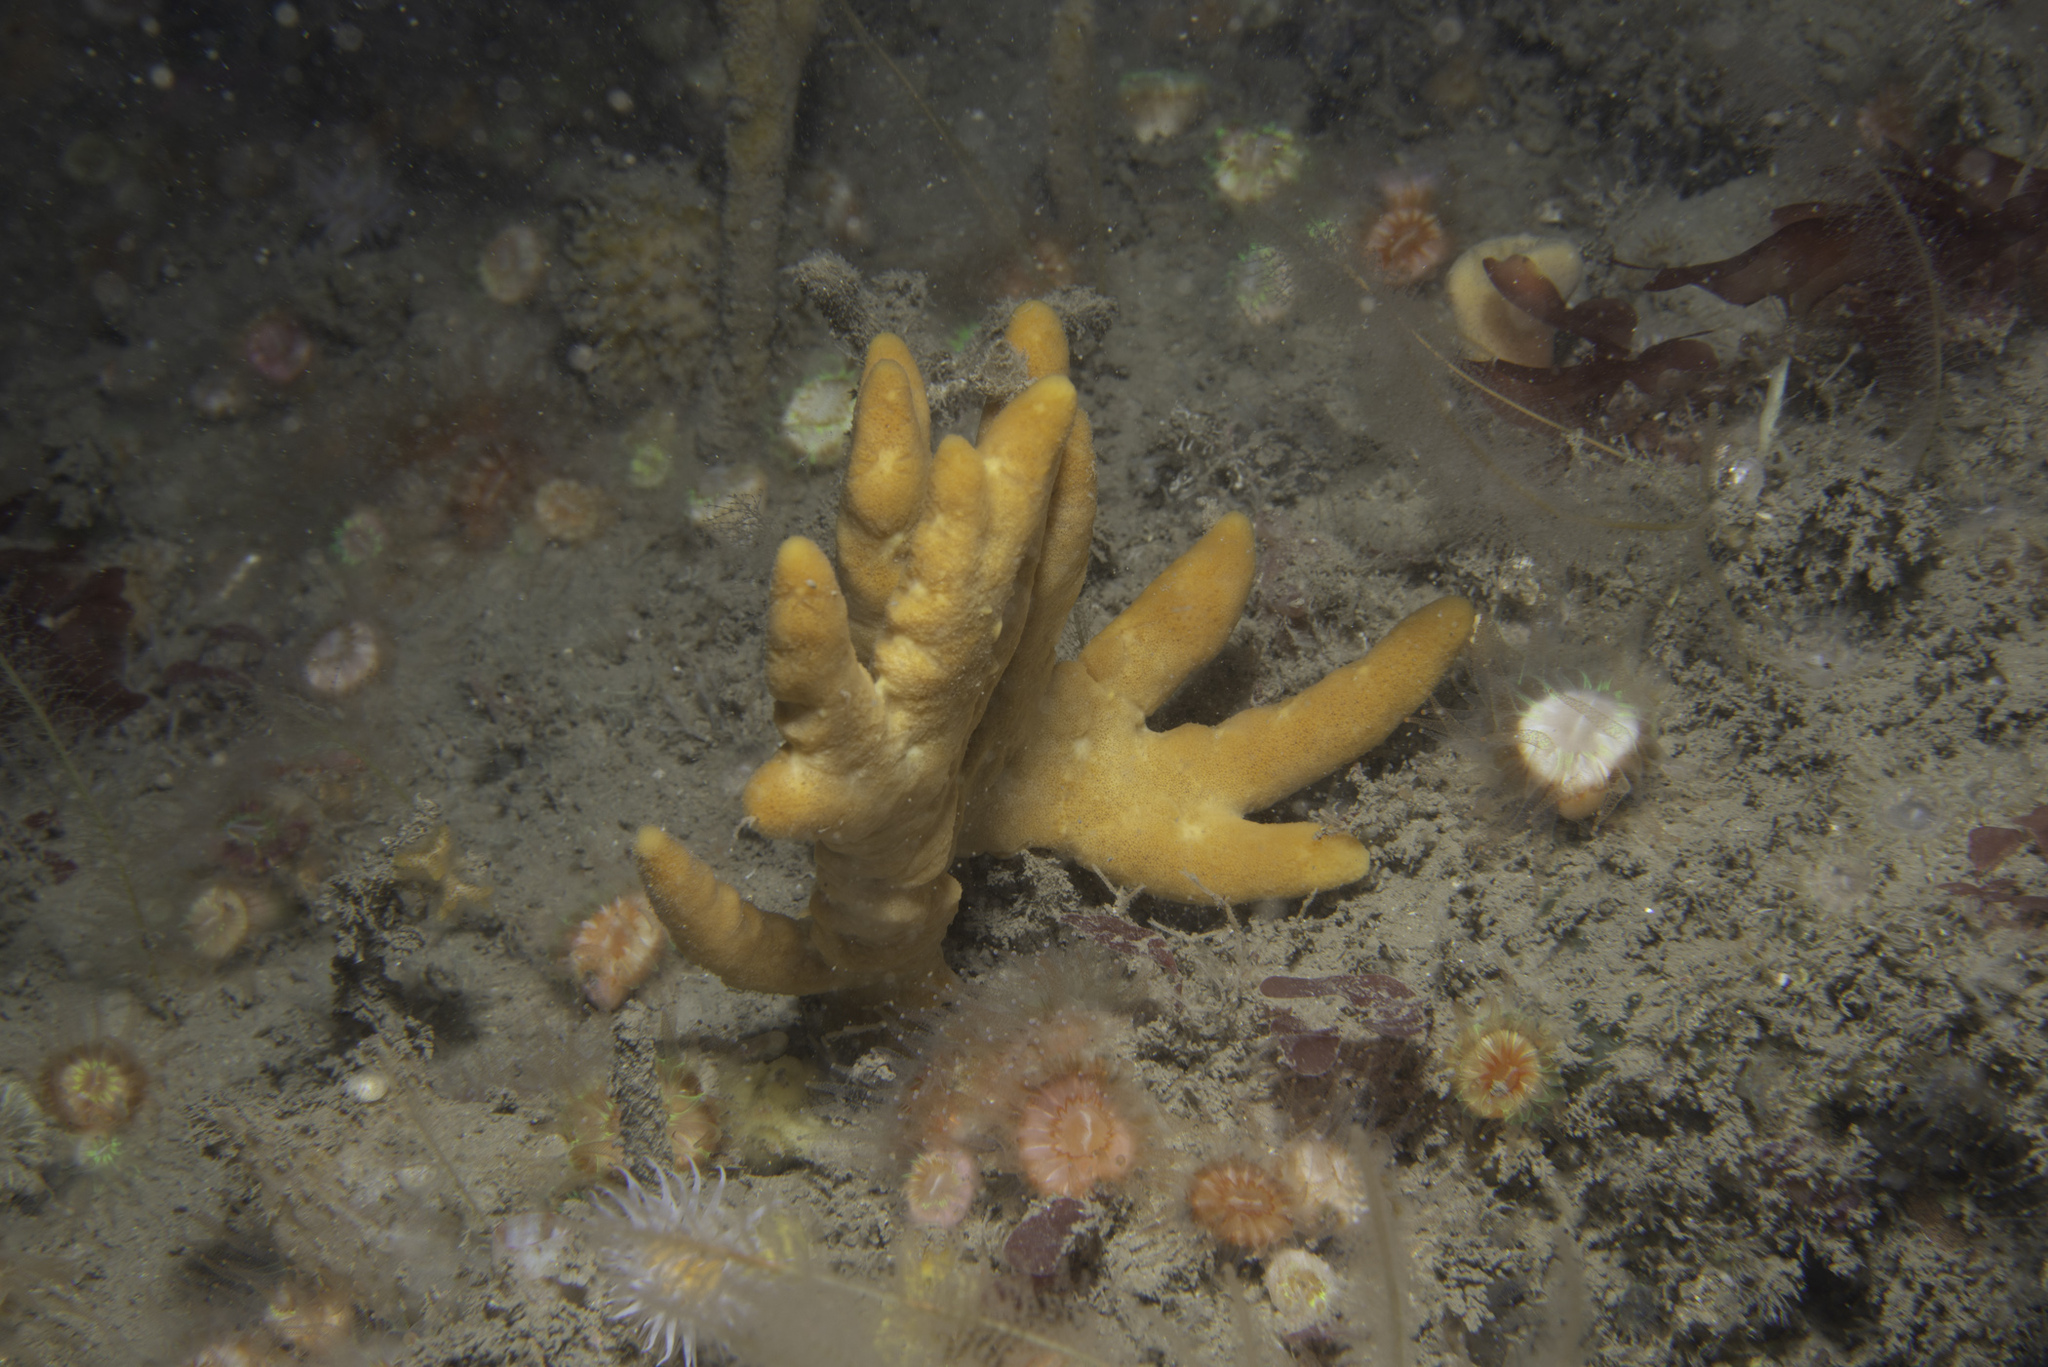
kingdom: Animalia
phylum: Porifera
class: Demospongiae
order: Axinellida
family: Axinellidae
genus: Axinella
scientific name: Axinella dissimilis
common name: Branching sponge
